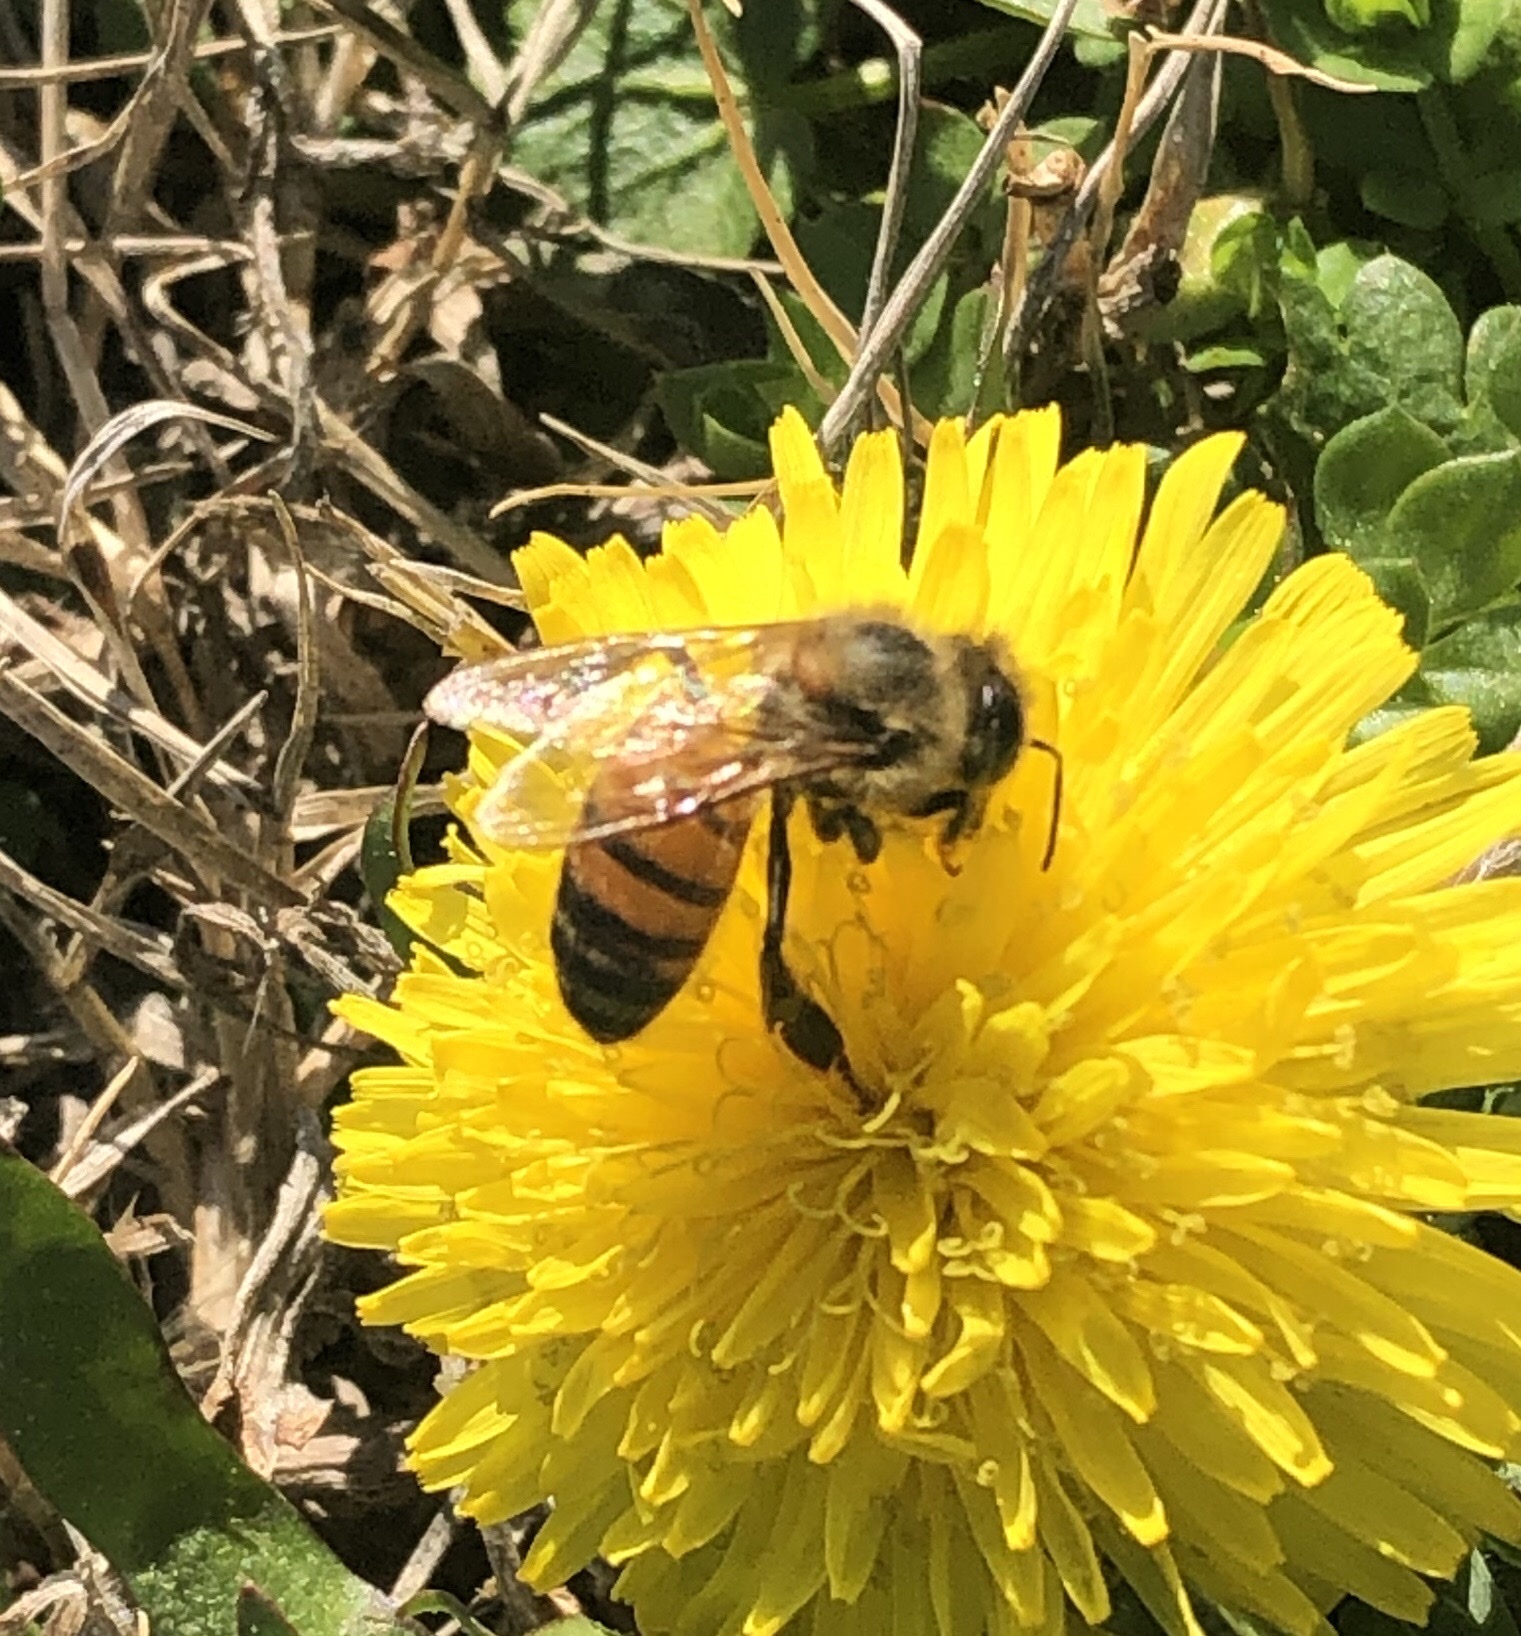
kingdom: Animalia
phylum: Arthropoda
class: Insecta
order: Hymenoptera
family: Apidae
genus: Apis
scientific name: Apis mellifera
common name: Honey bee
